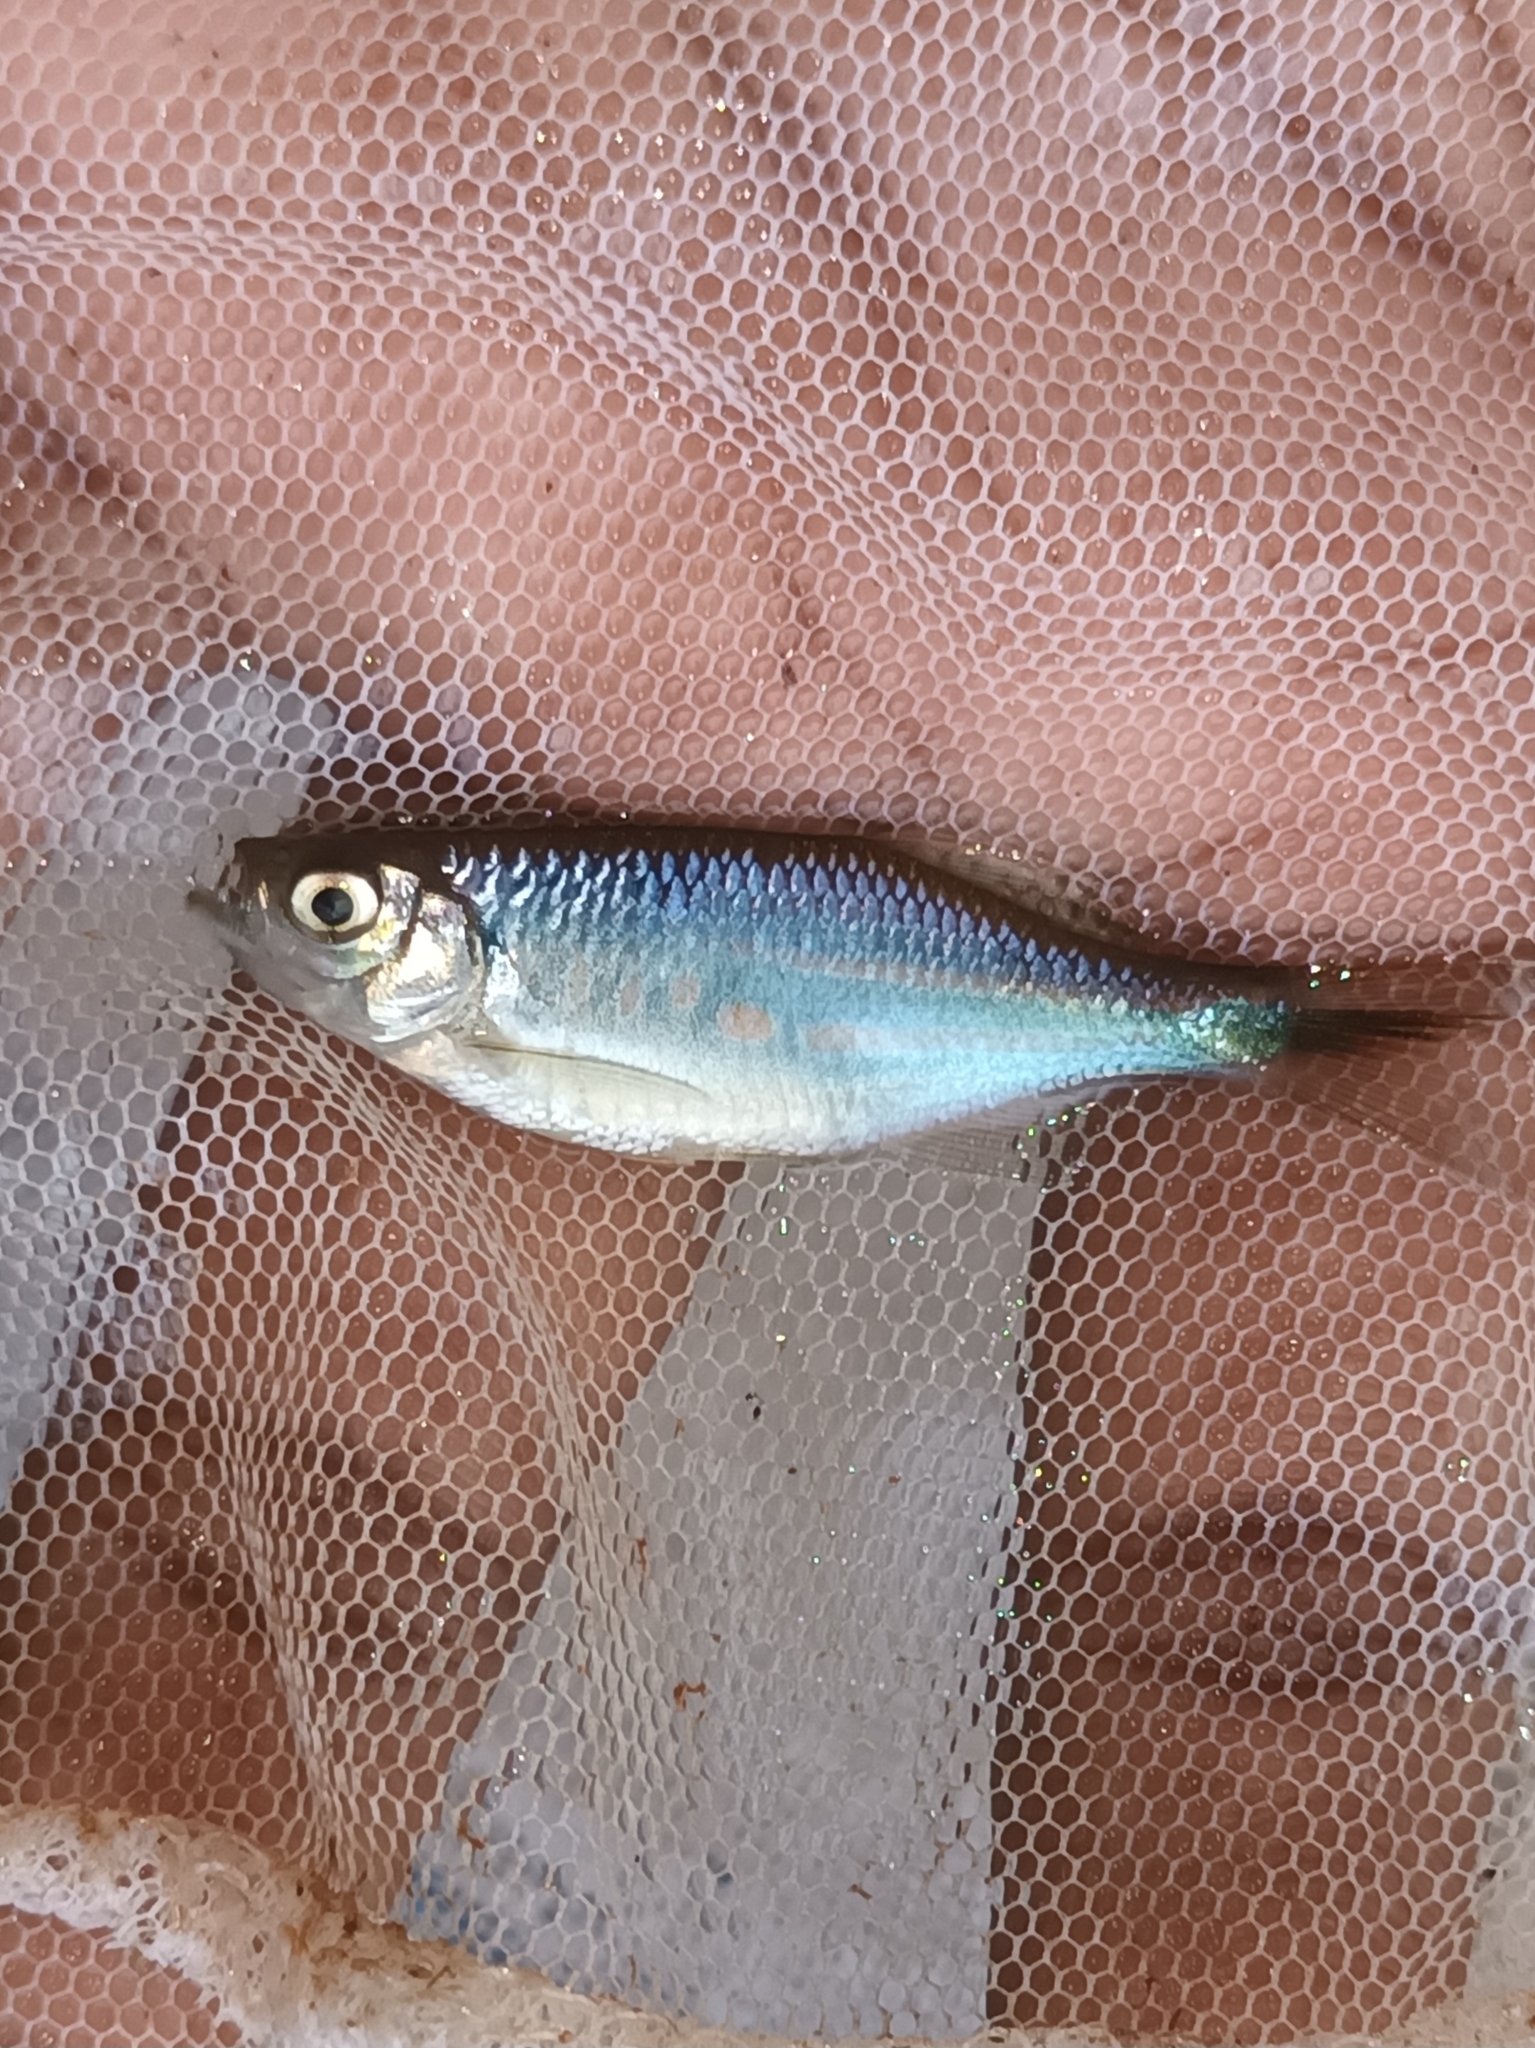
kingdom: Animalia
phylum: Chordata
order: Cypriniformes
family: Cyprinidae
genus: Devario
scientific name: Devario malabaricus
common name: Giant danio
